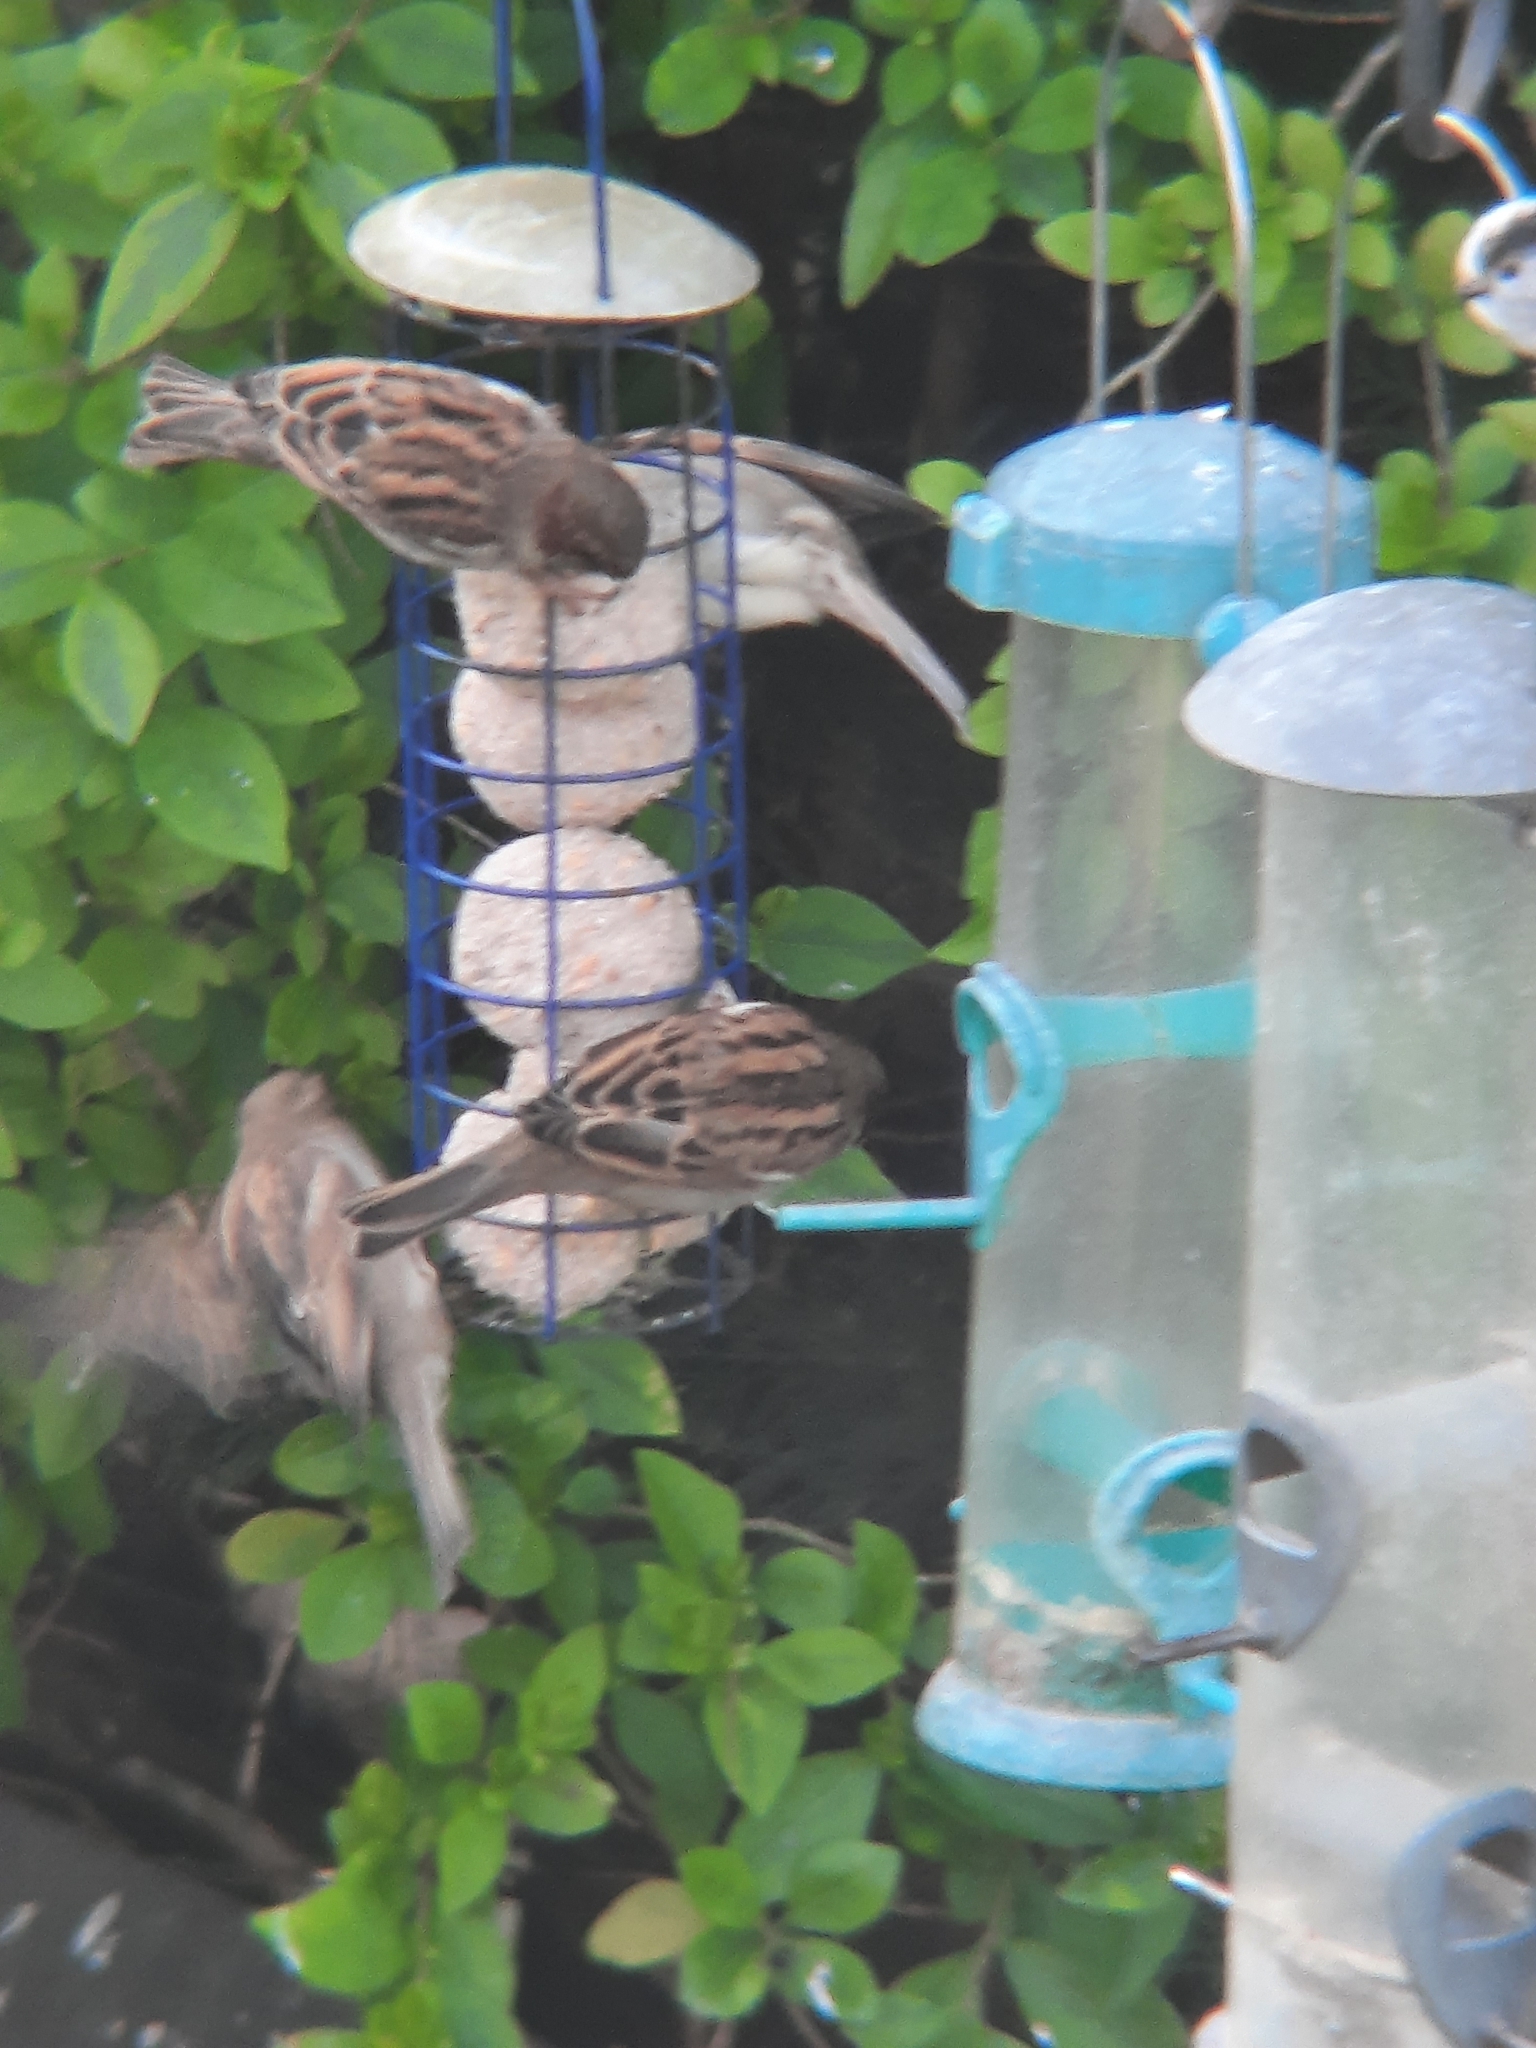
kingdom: Animalia
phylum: Chordata
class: Aves
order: Passeriformes
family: Passeridae
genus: Passer
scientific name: Passer domesticus
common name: House sparrow
